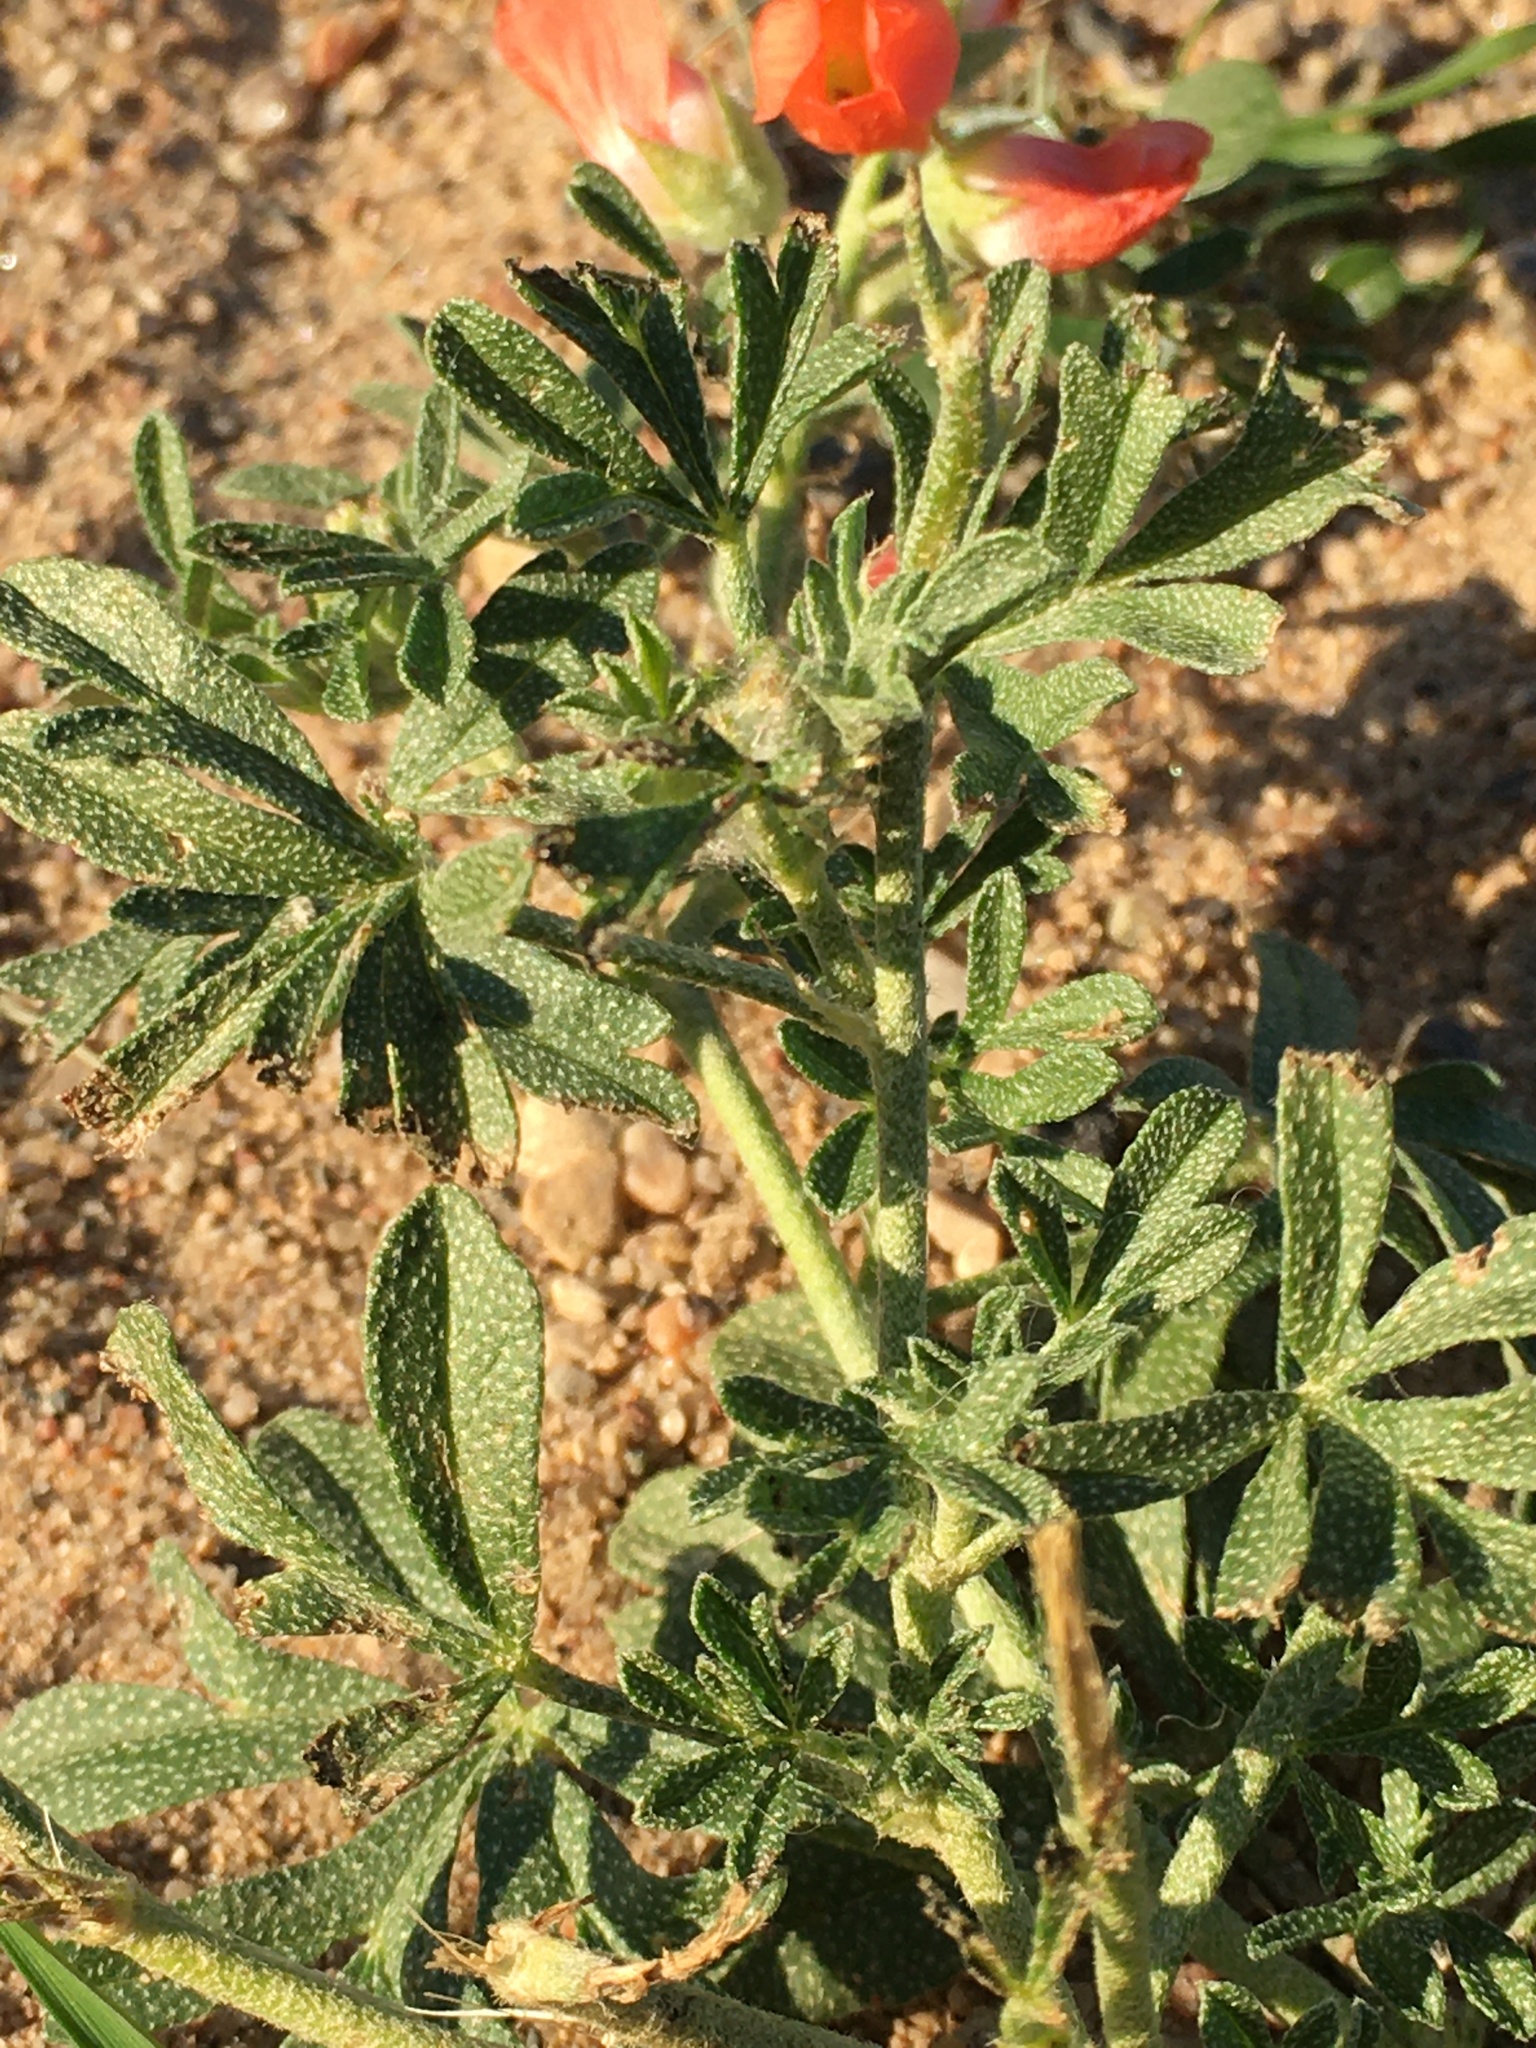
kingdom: Plantae
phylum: Tracheophyta
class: Magnoliopsida
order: Malvales
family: Malvaceae
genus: Sphaeralcea
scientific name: Sphaeralcea coccinea
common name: Moss-rose
